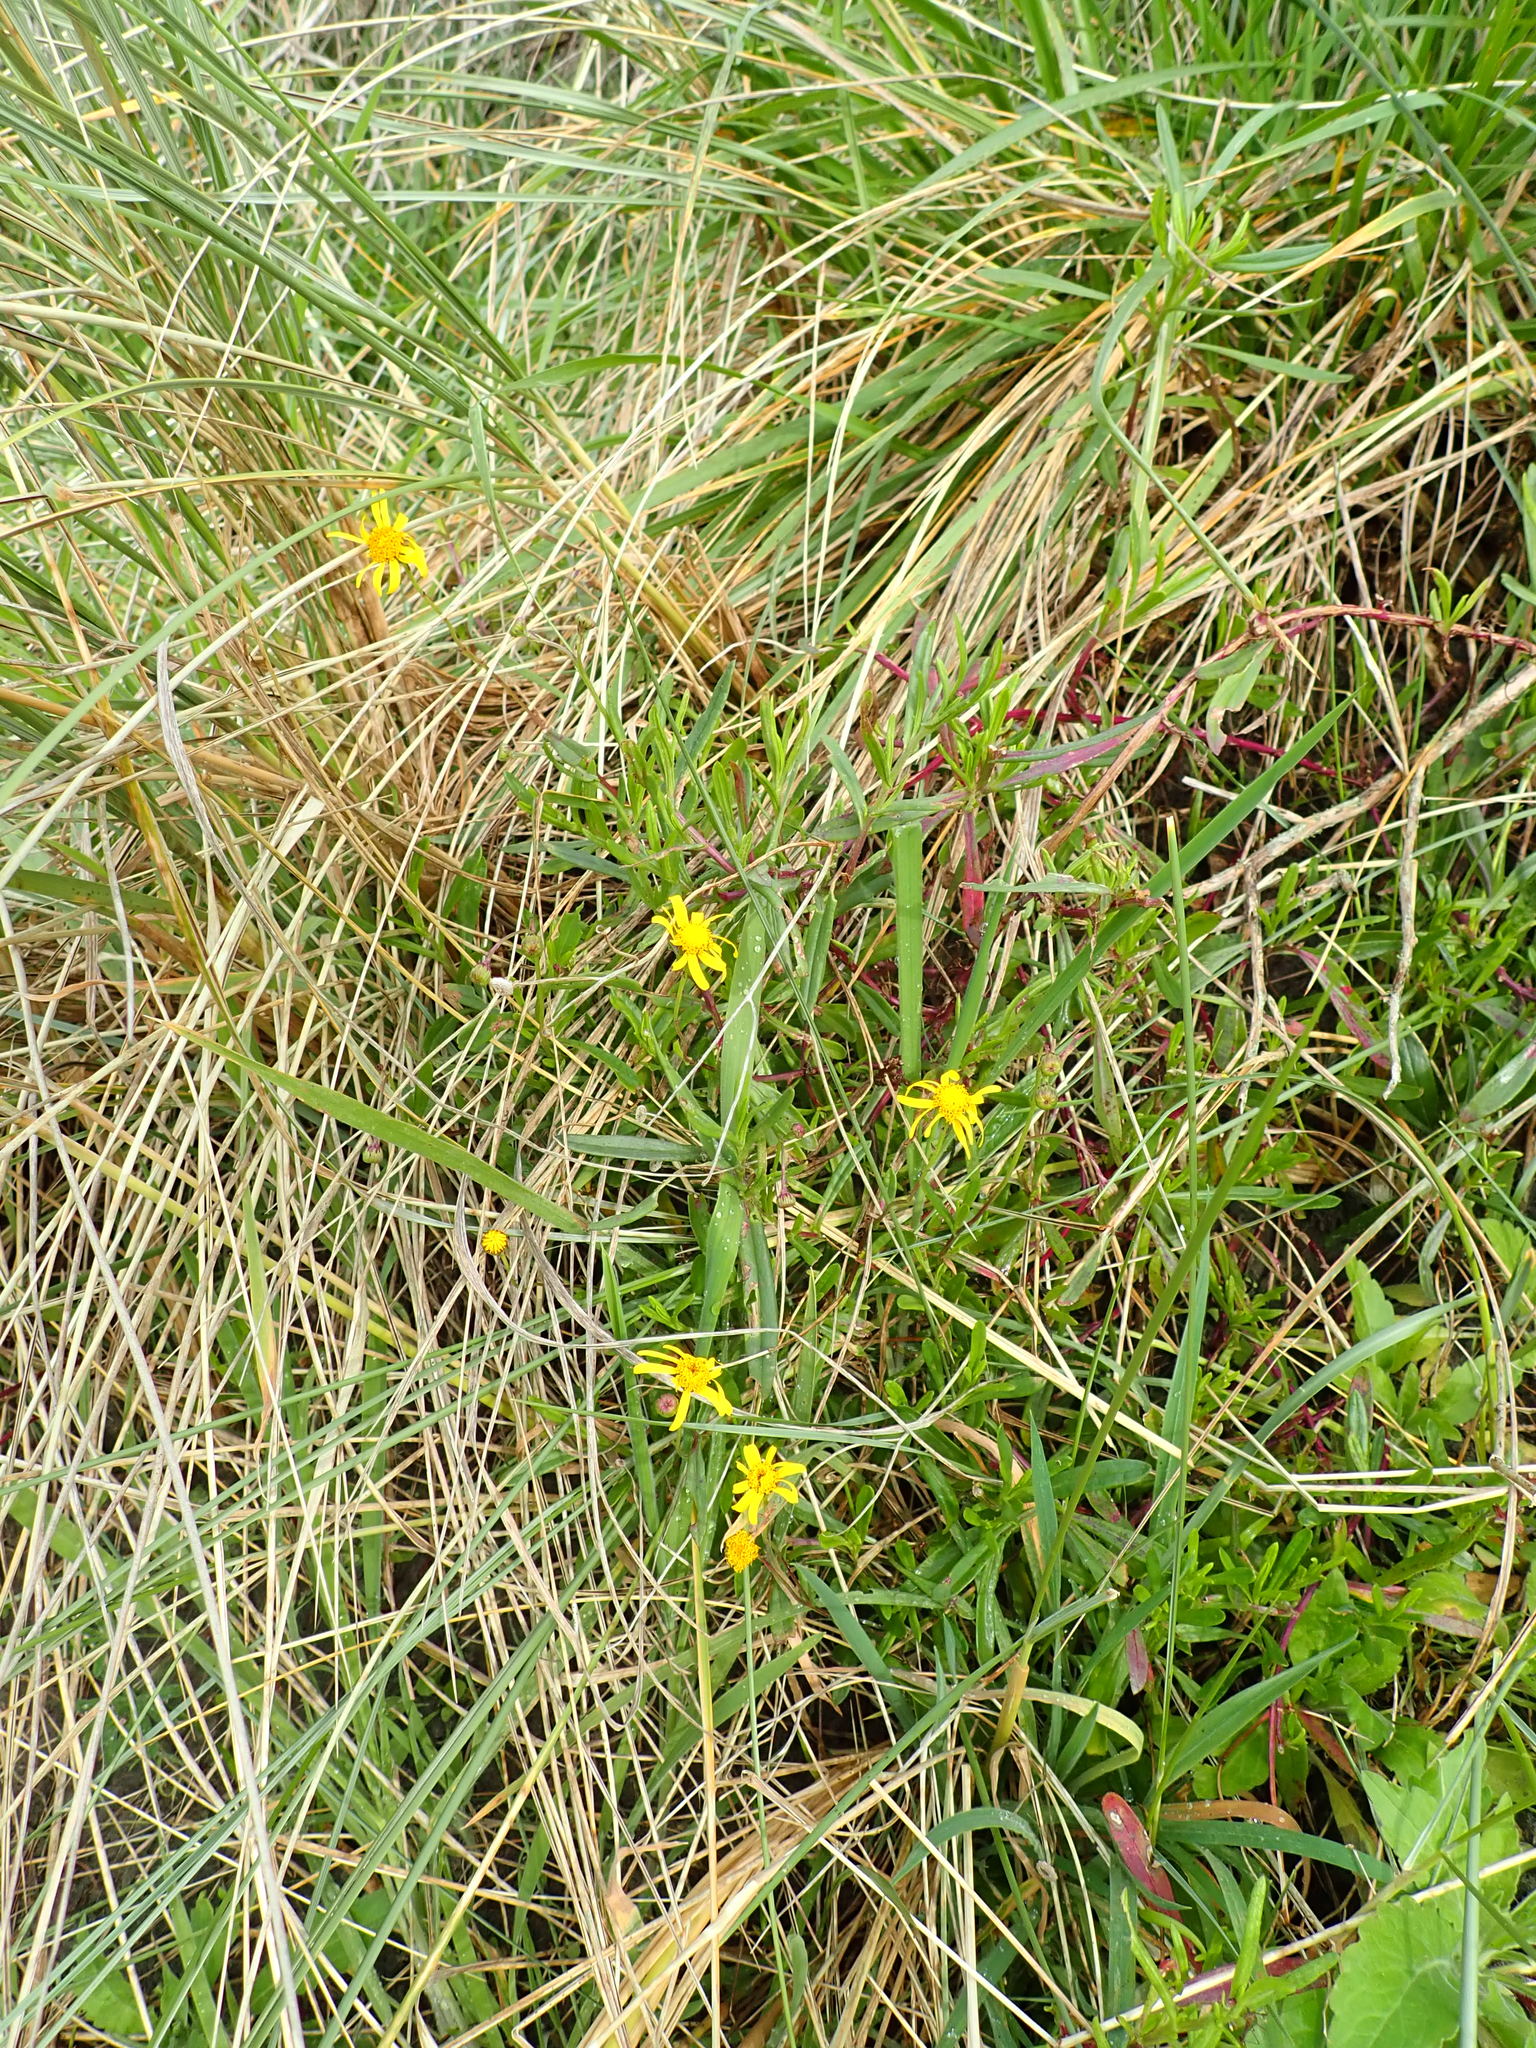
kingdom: Plantae
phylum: Tracheophyta
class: Magnoliopsida
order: Asterales
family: Asteraceae
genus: Senecio
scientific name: Senecio skirrhodon
